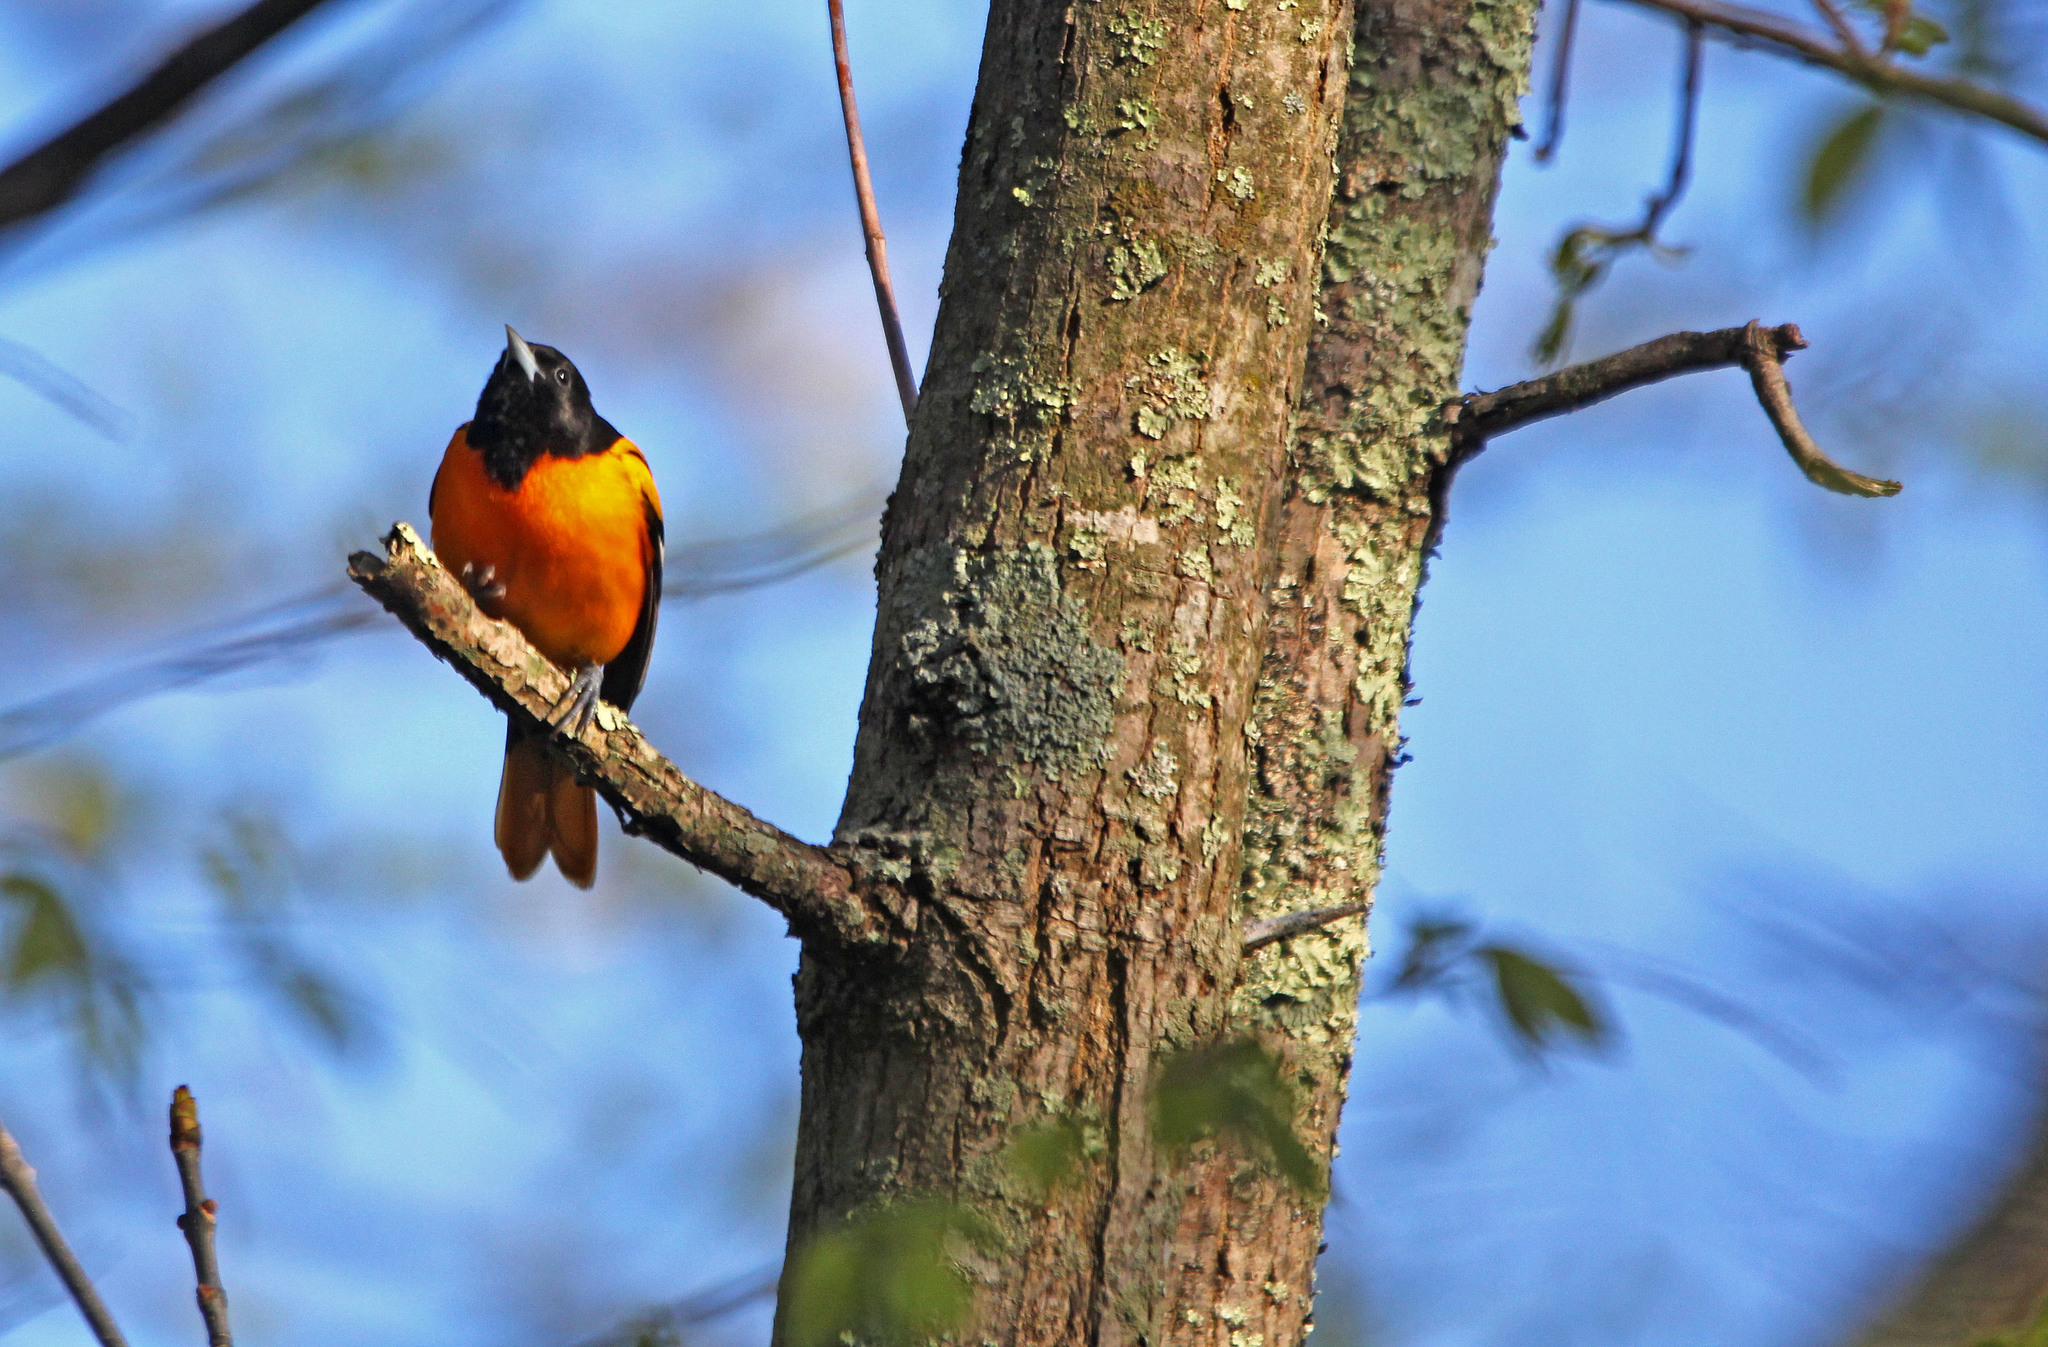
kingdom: Animalia
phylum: Chordata
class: Aves
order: Passeriformes
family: Icteridae
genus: Icterus
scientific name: Icterus galbula
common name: Baltimore oriole
